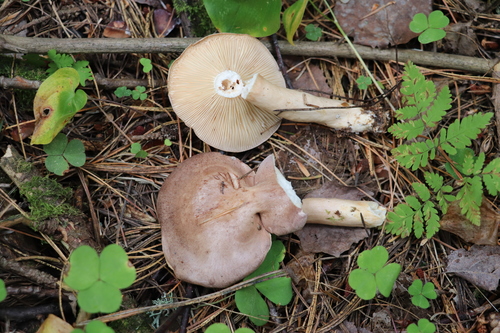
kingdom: Fungi
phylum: Basidiomycota
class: Agaricomycetes
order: Russulales
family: Russulaceae
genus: Lactarius
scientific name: Lactarius trivialis
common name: Tacked milkcap
